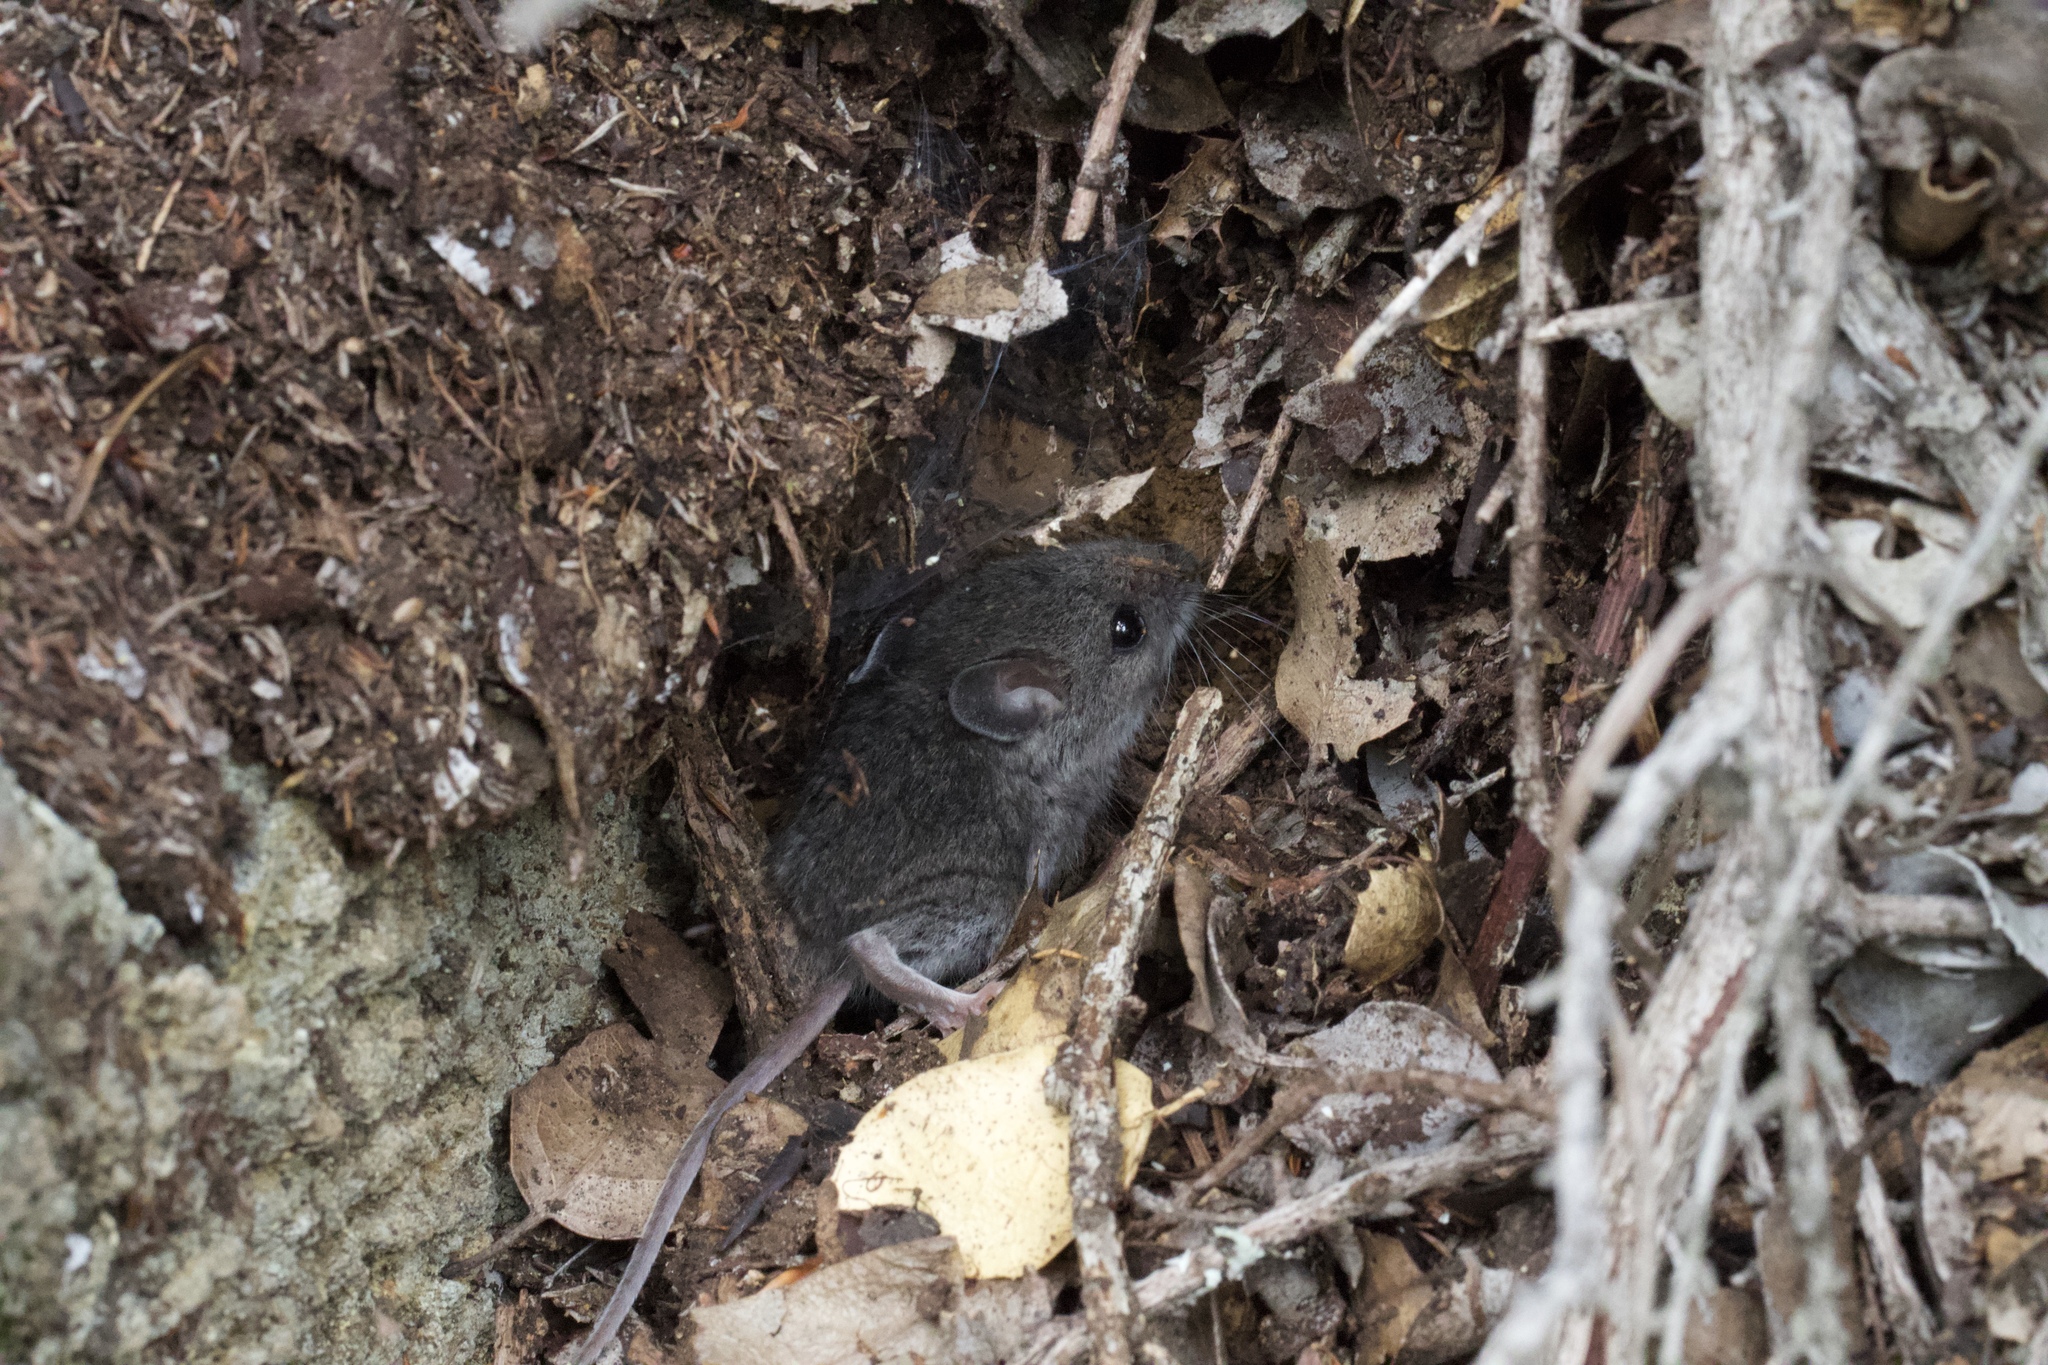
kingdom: Animalia
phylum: Chordata
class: Mammalia
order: Rodentia
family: Cricetidae
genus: Reithrodontomys
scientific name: Reithrodontomys megalotis
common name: Western harvest mouse
